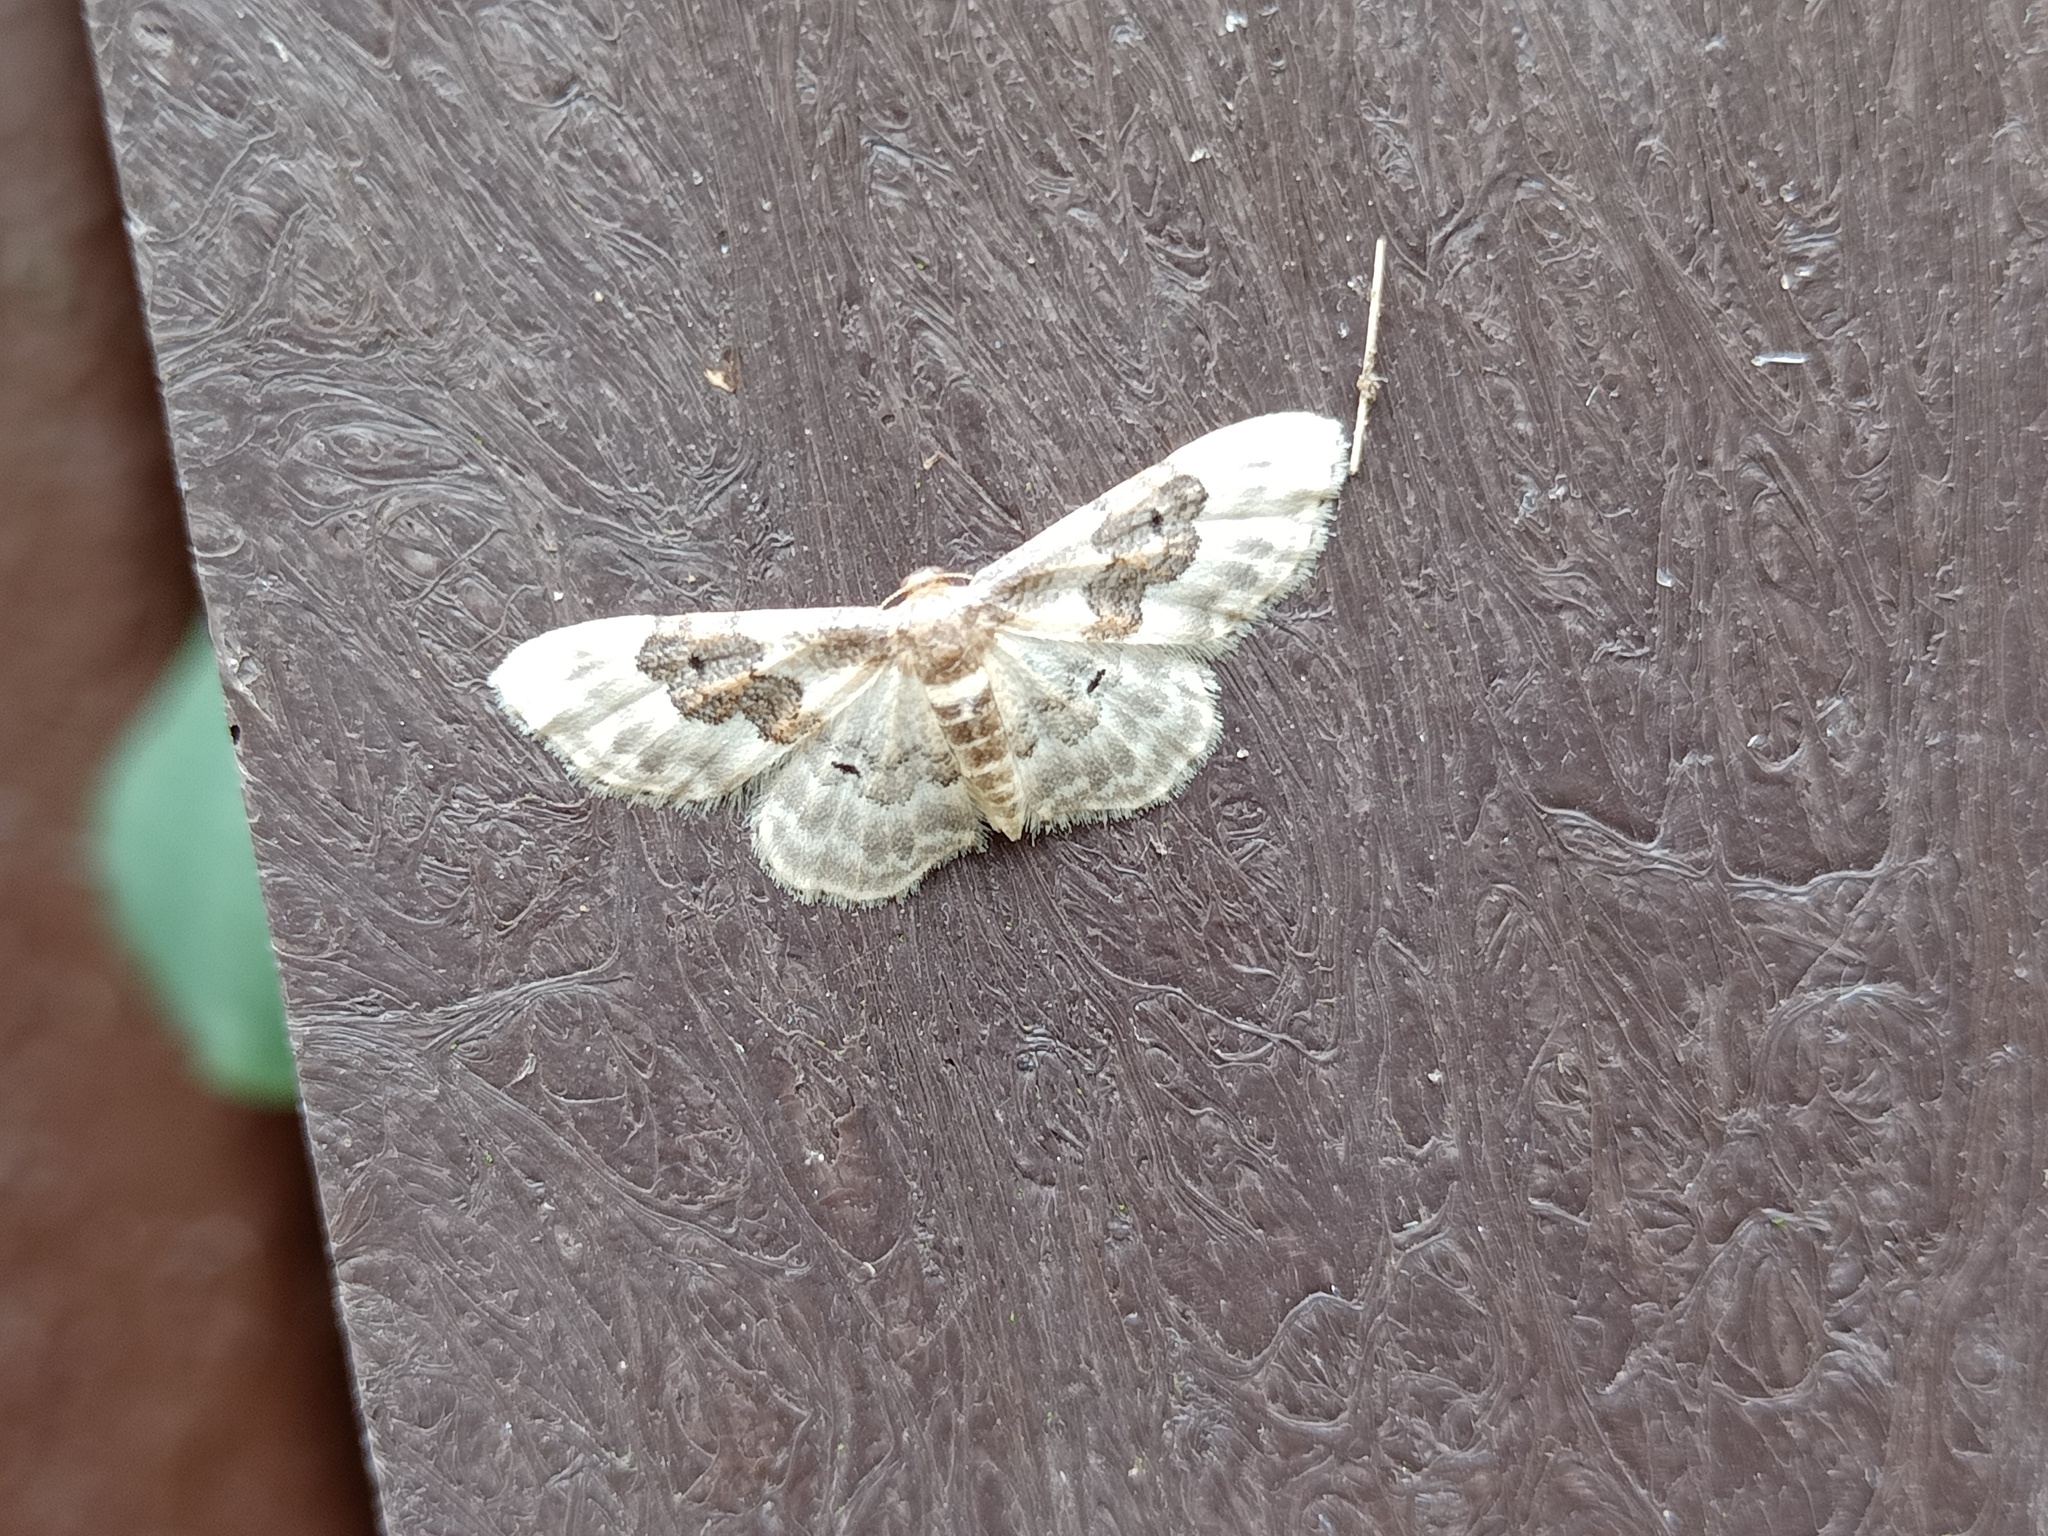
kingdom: Animalia
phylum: Arthropoda
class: Insecta
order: Lepidoptera
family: Geometridae
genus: Idaea
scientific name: Idaea rusticata
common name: Least carpet
